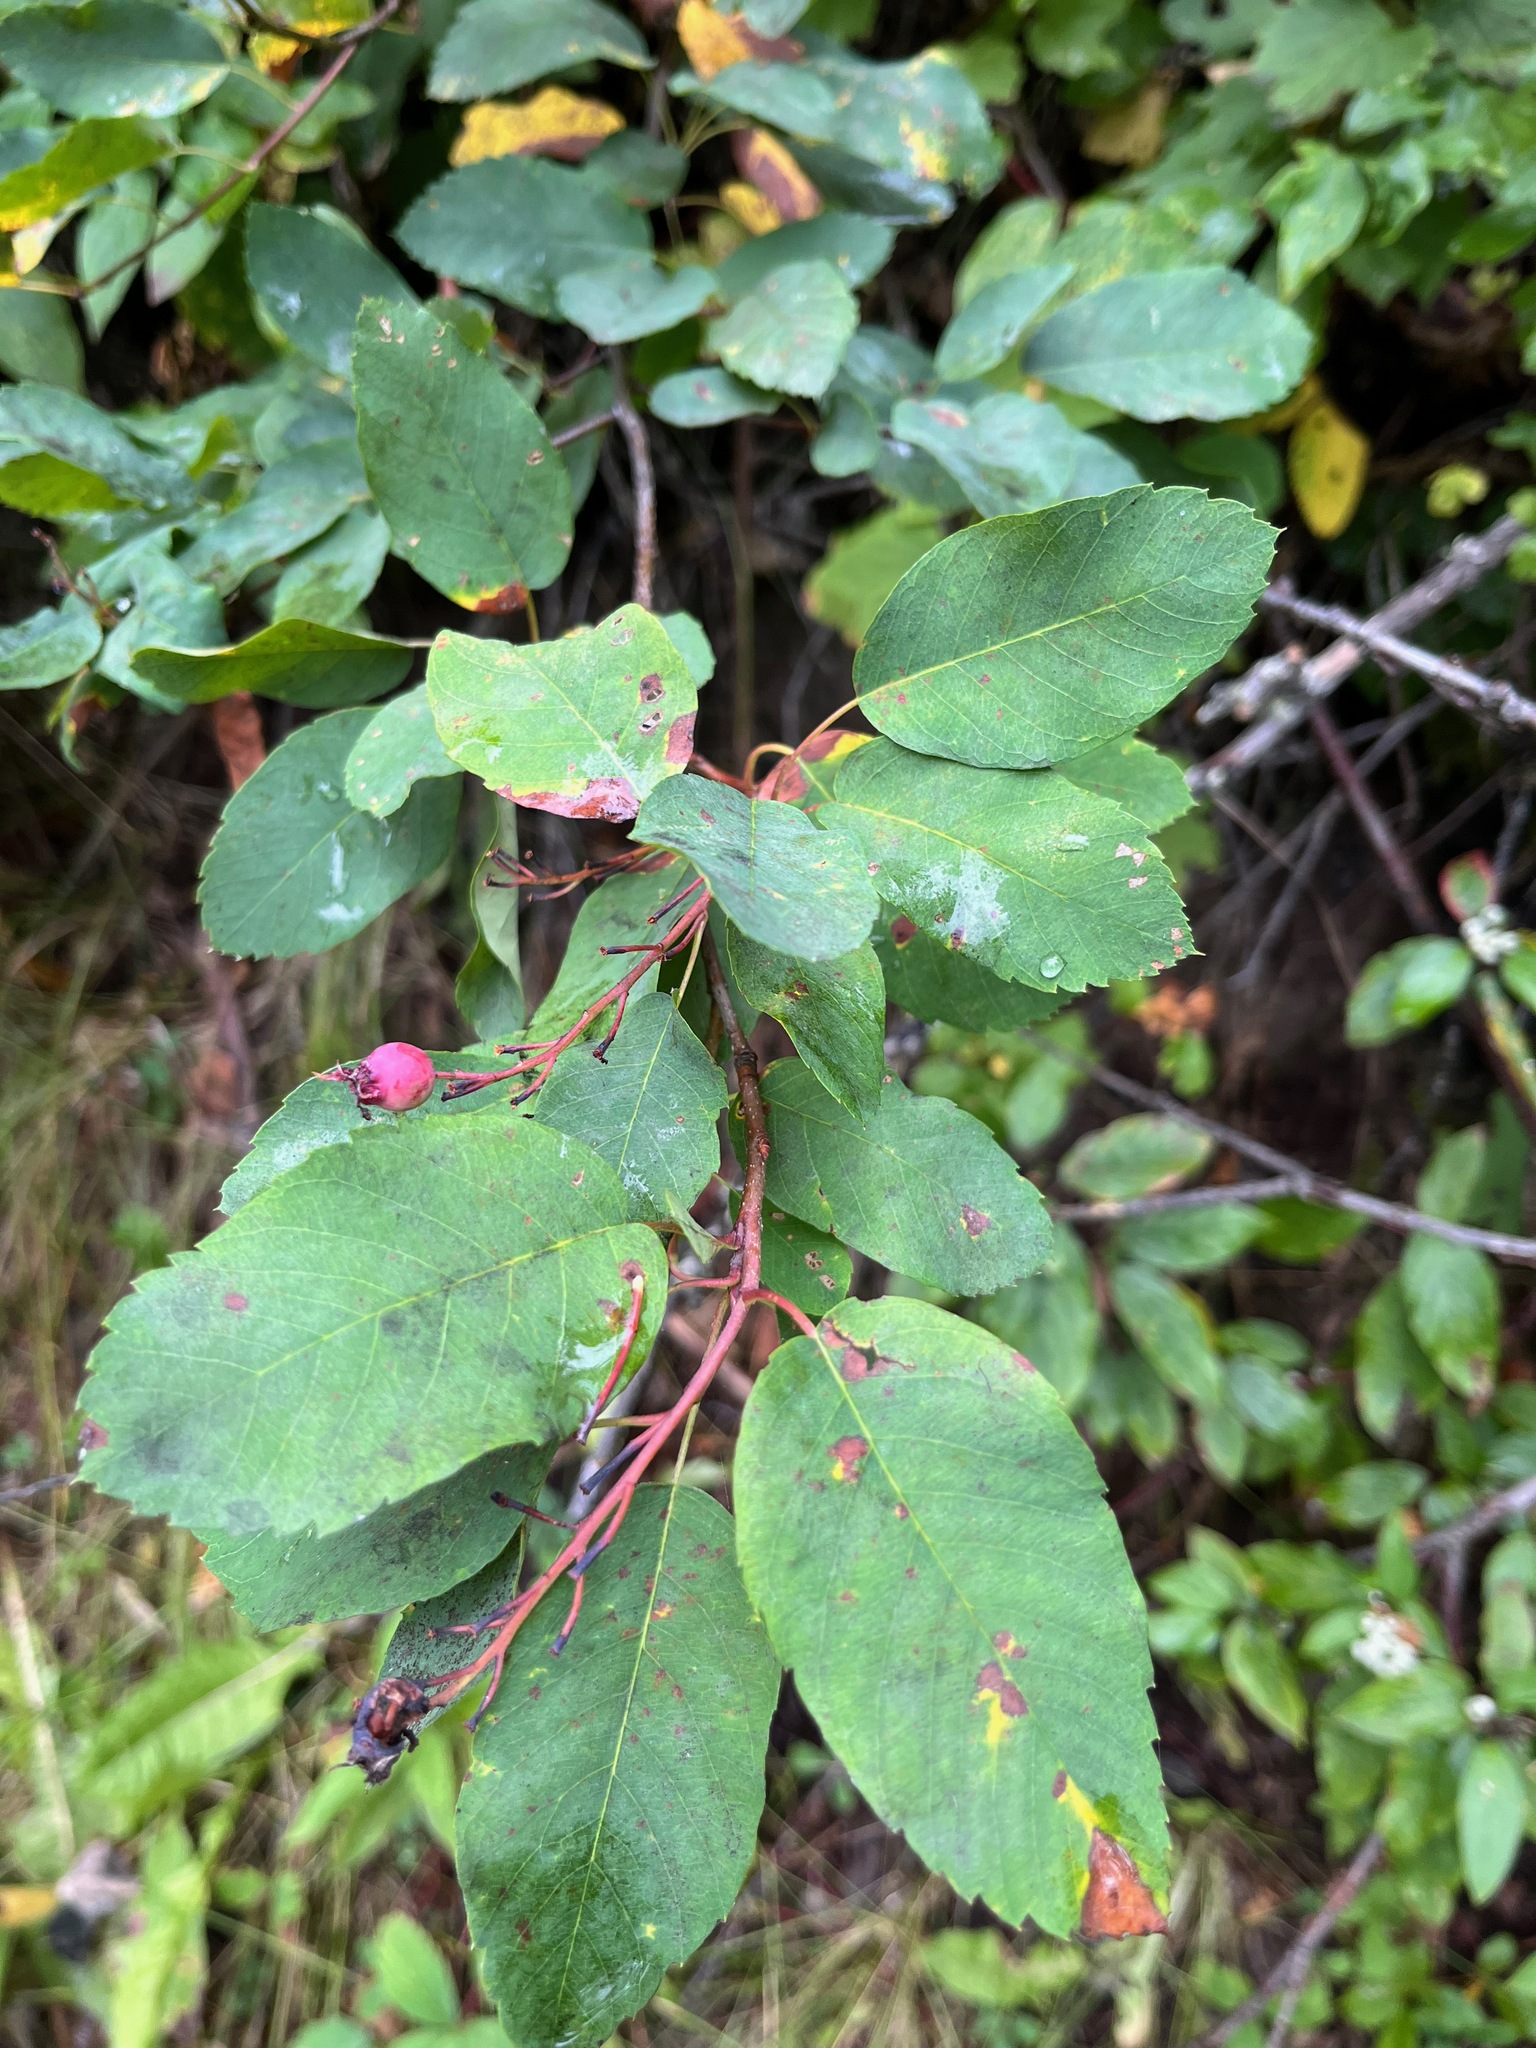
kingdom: Plantae
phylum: Tracheophyta
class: Magnoliopsida
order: Rosales
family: Rosaceae
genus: Amelanchier
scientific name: Amelanchier alnifolia
